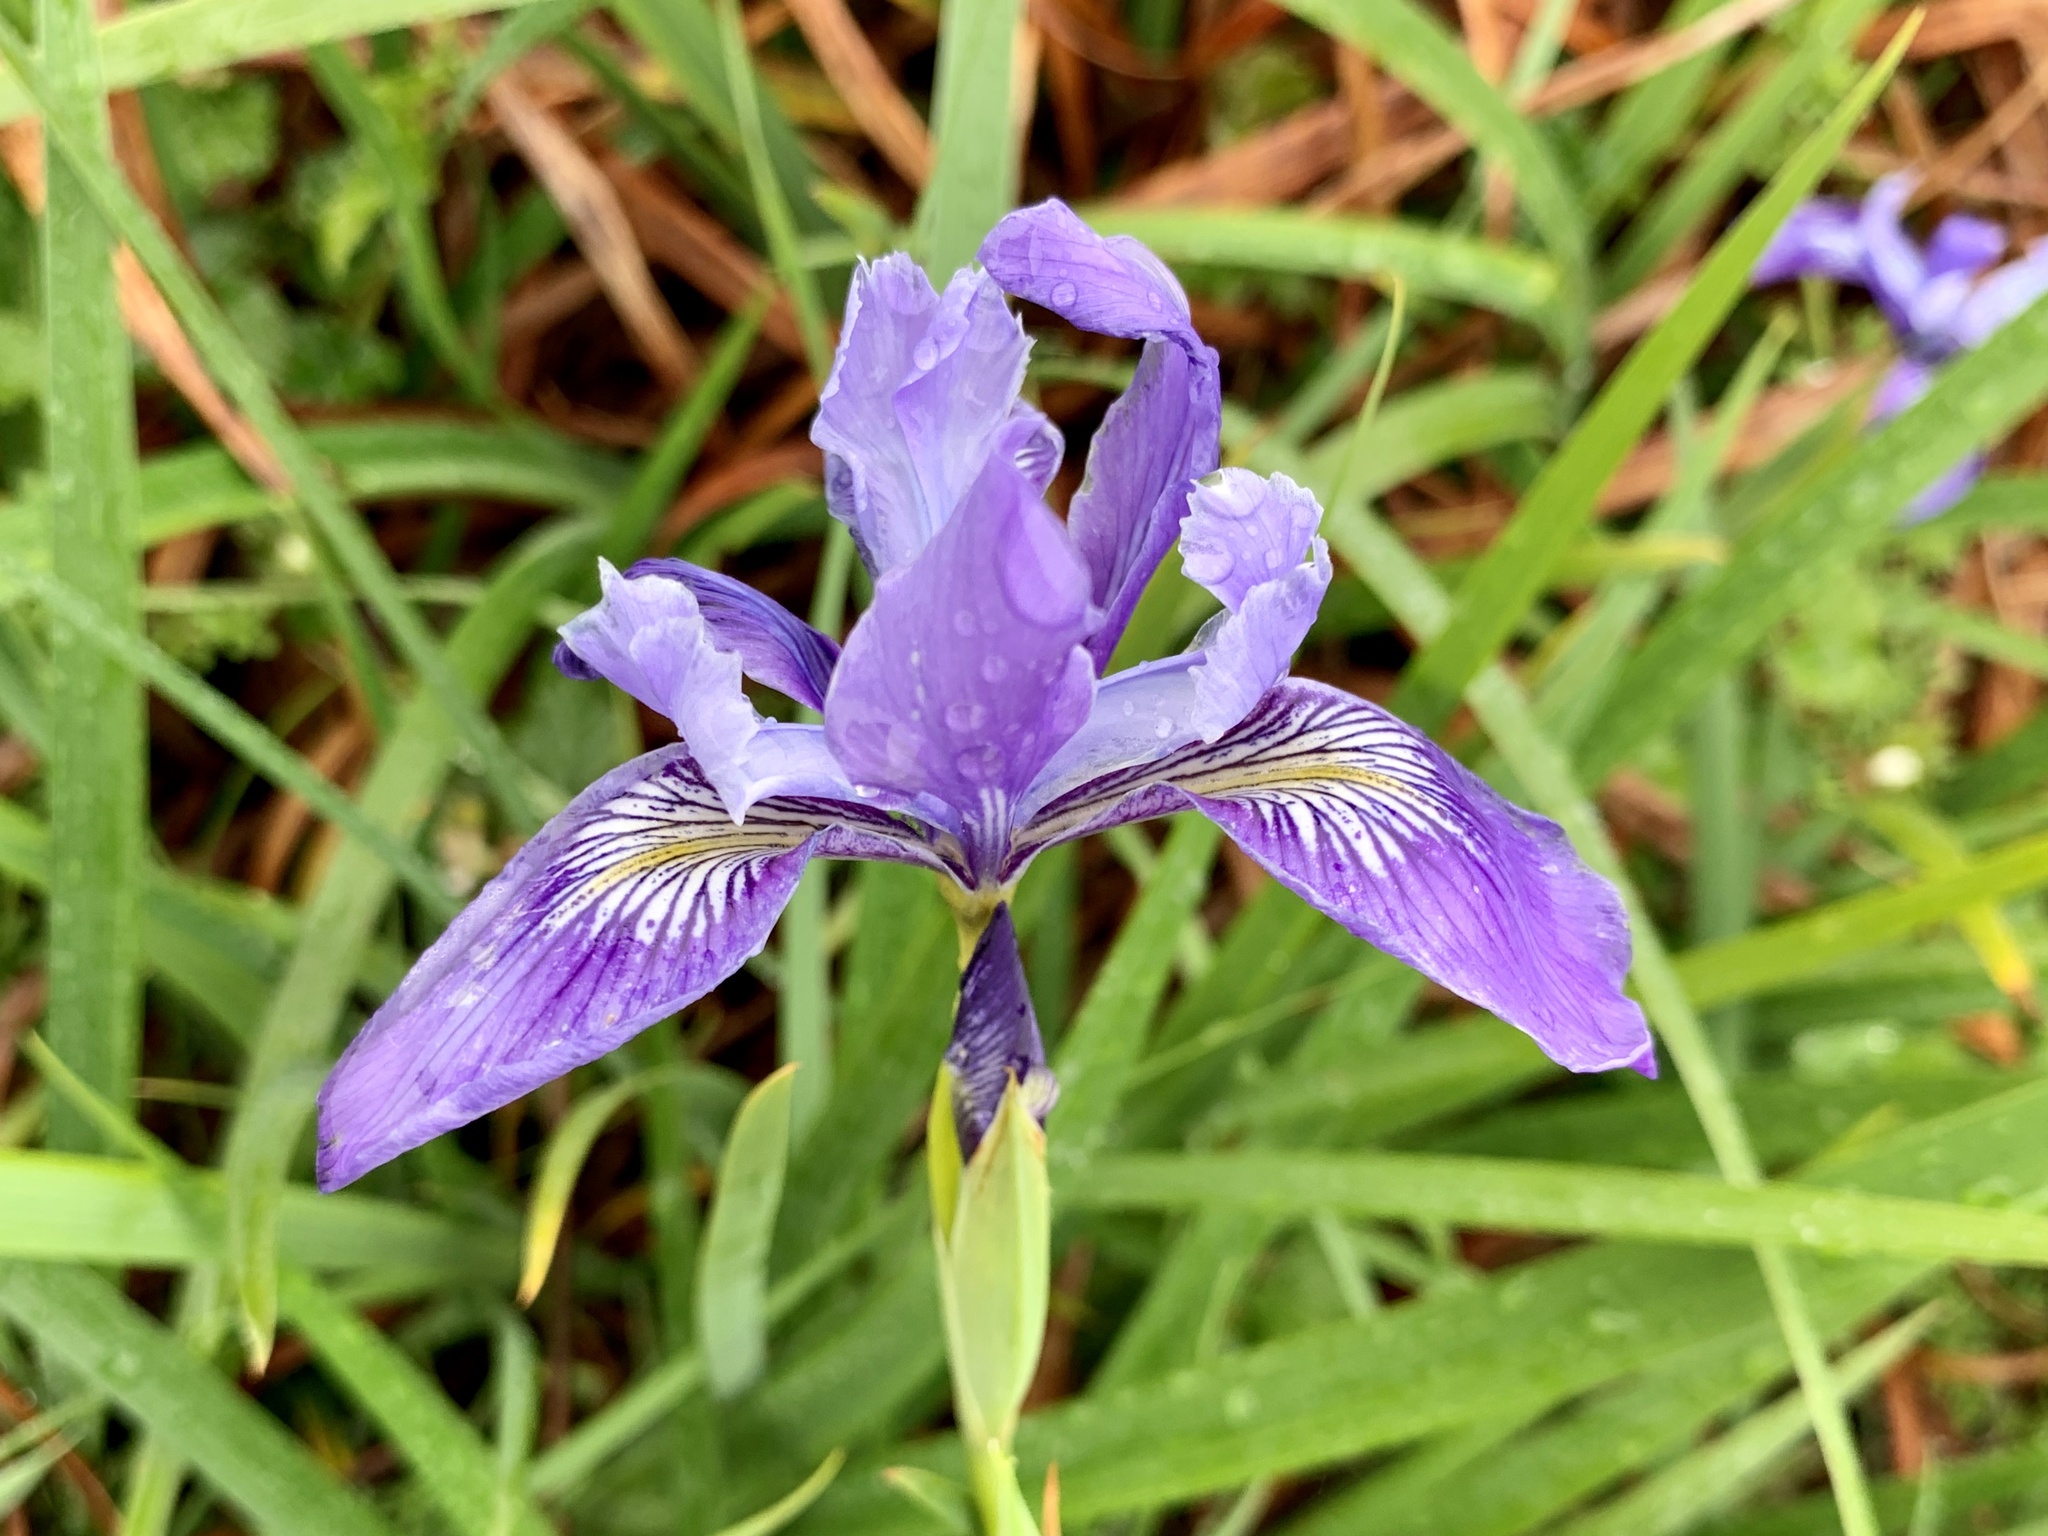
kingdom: Plantae
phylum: Tracheophyta
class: Liliopsida
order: Asparagales
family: Iridaceae
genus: Iris
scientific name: Iris douglasiana
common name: Marin iris
